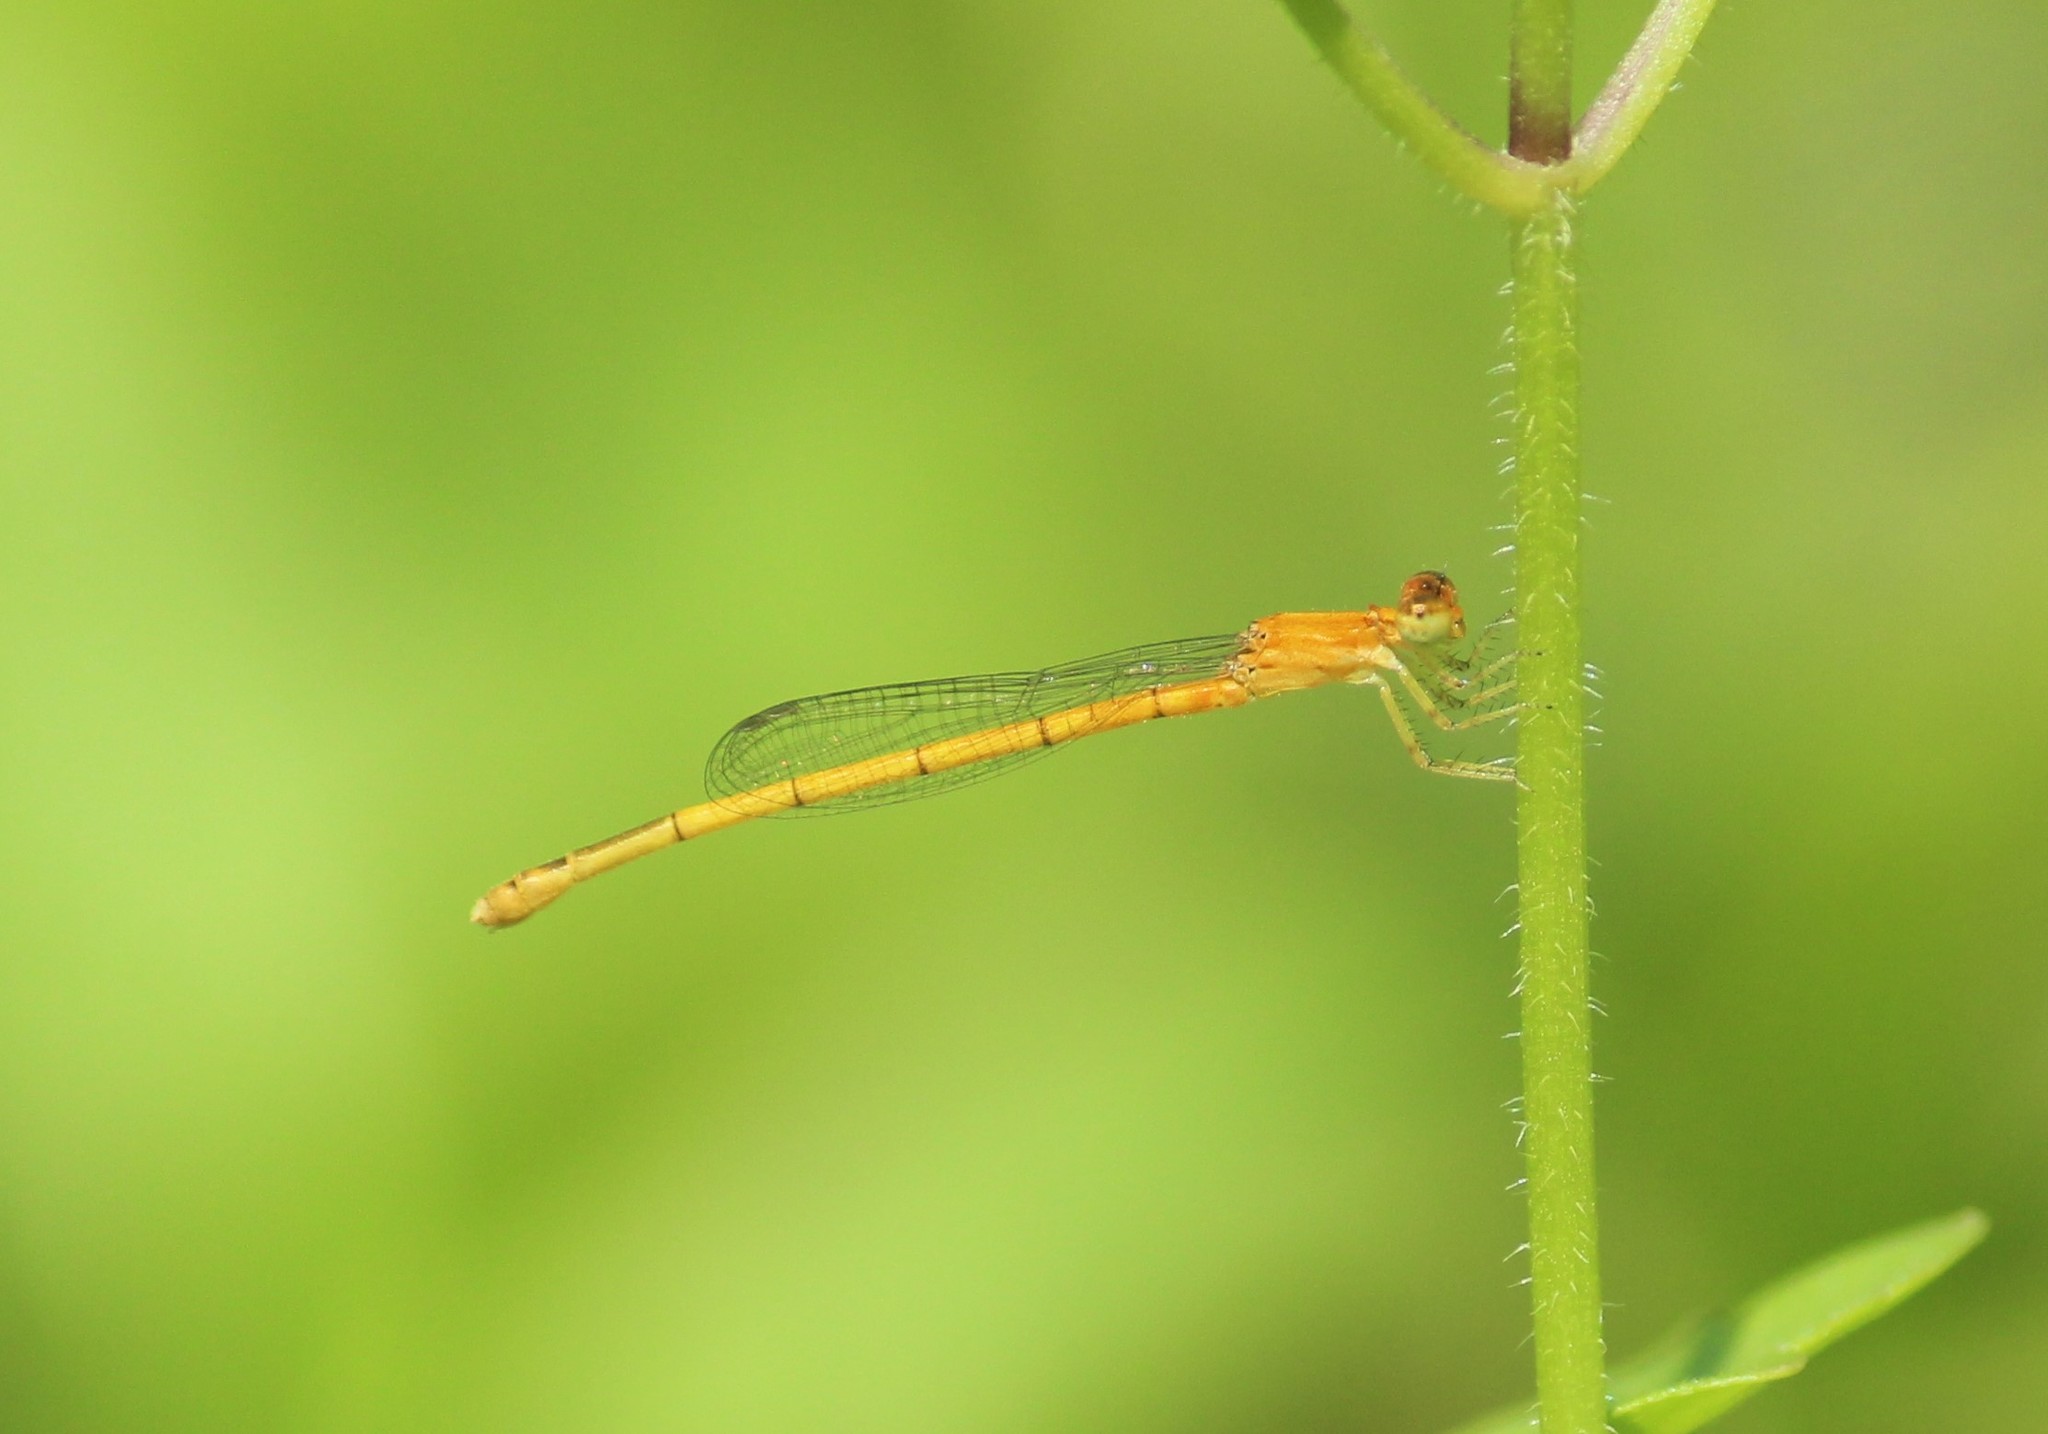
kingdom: Animalia
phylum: Arthropoda
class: Insecta
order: Odonata
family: Coenagrionidae
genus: Agriocnemis
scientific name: Agriocnemis pieris
